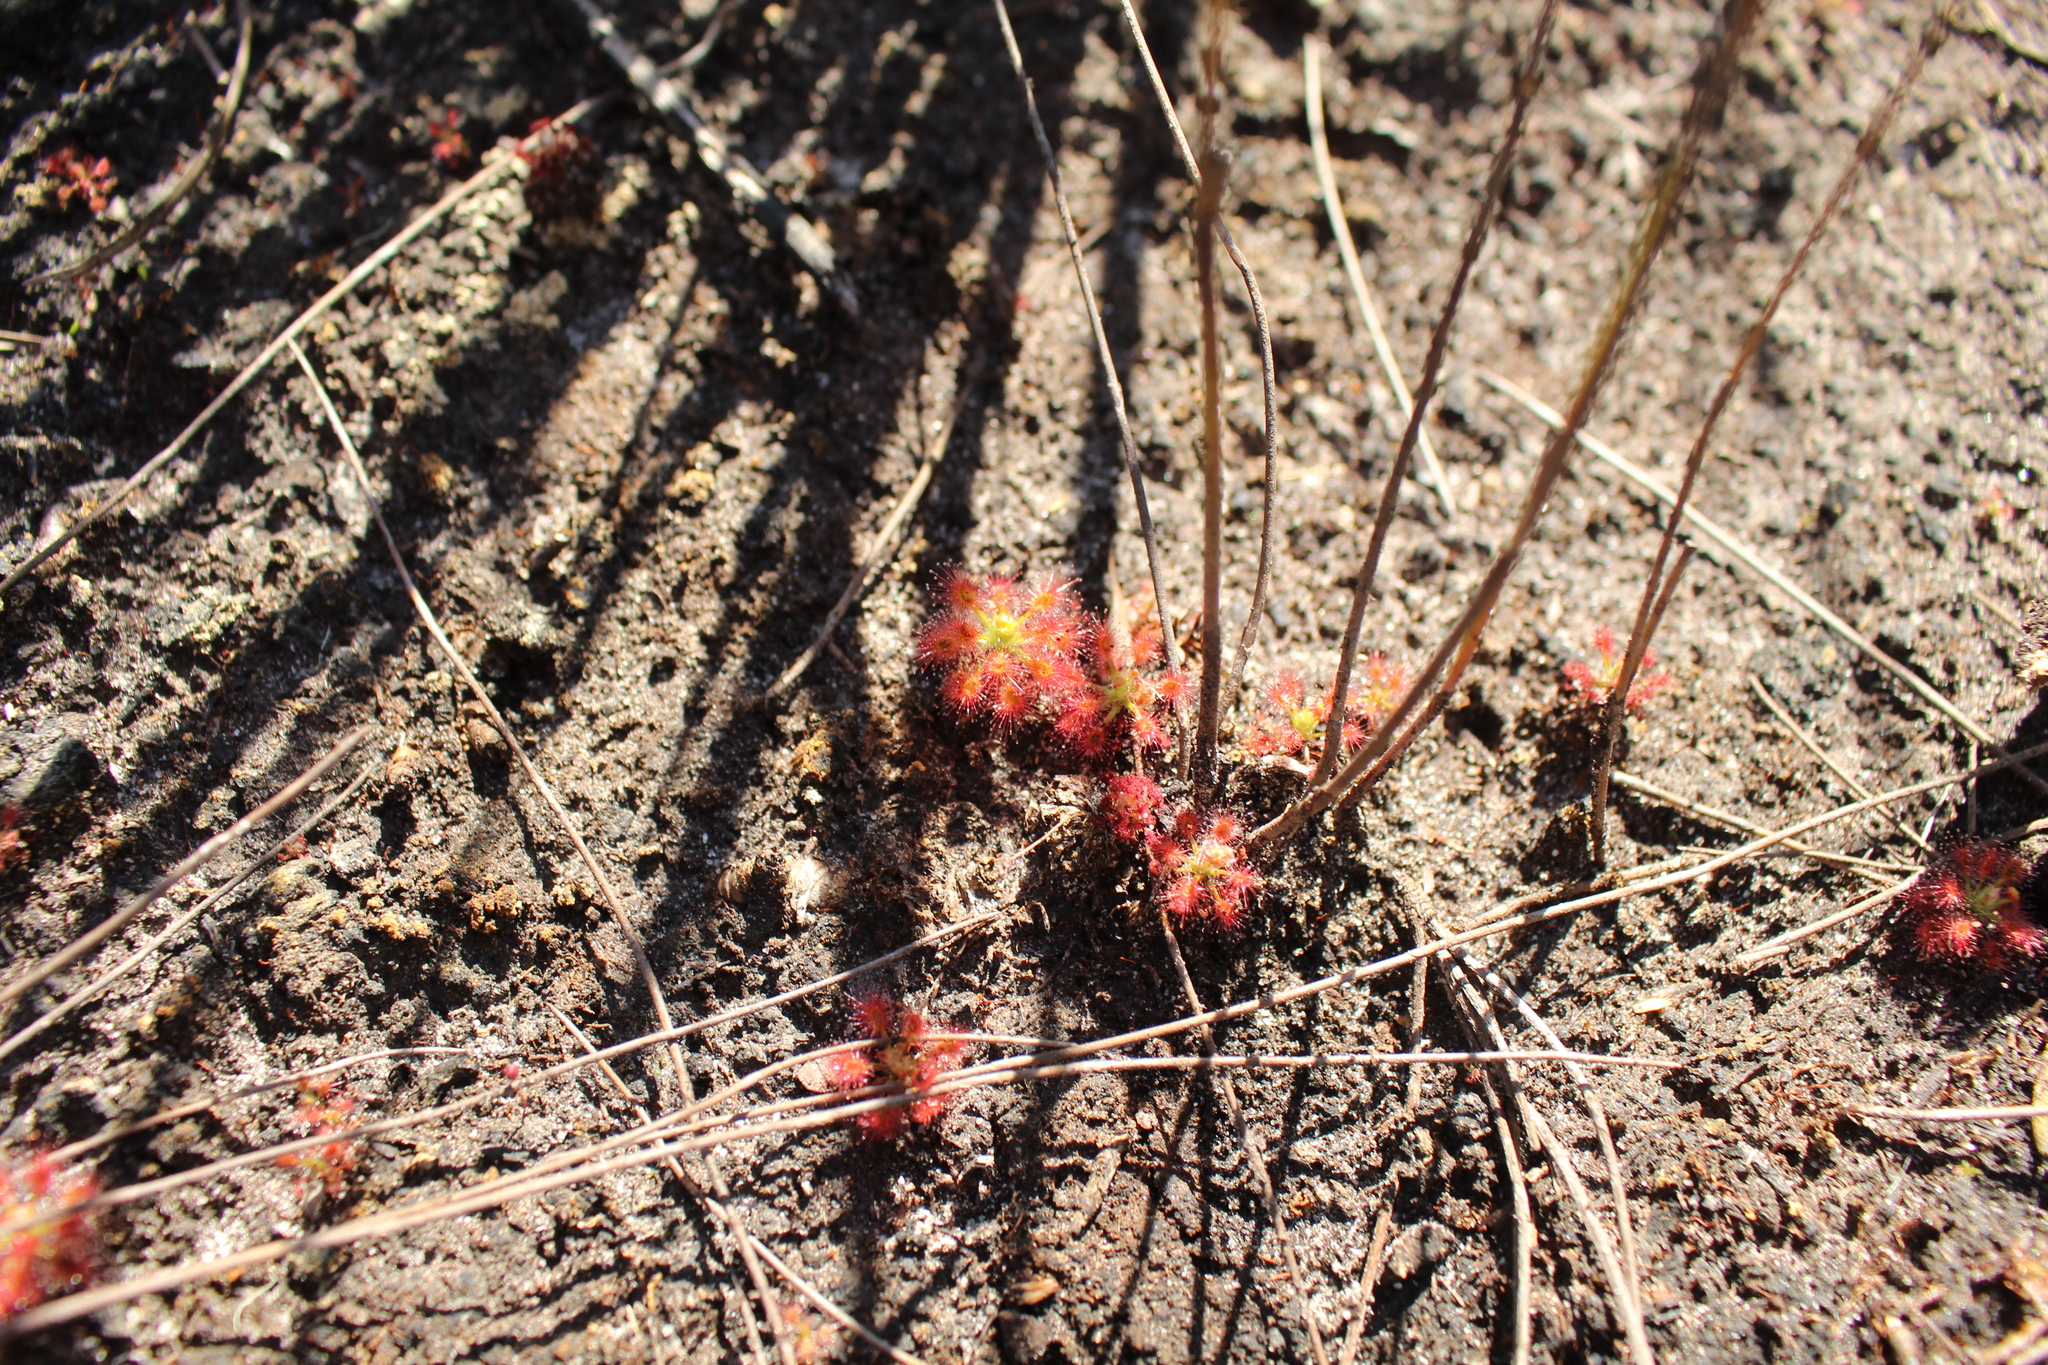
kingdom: Plantae
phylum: Tracheophyta
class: Magnoliopsida
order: Caryophyllales
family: Droseraceae
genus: Drosera
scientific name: Drosera paleacea
